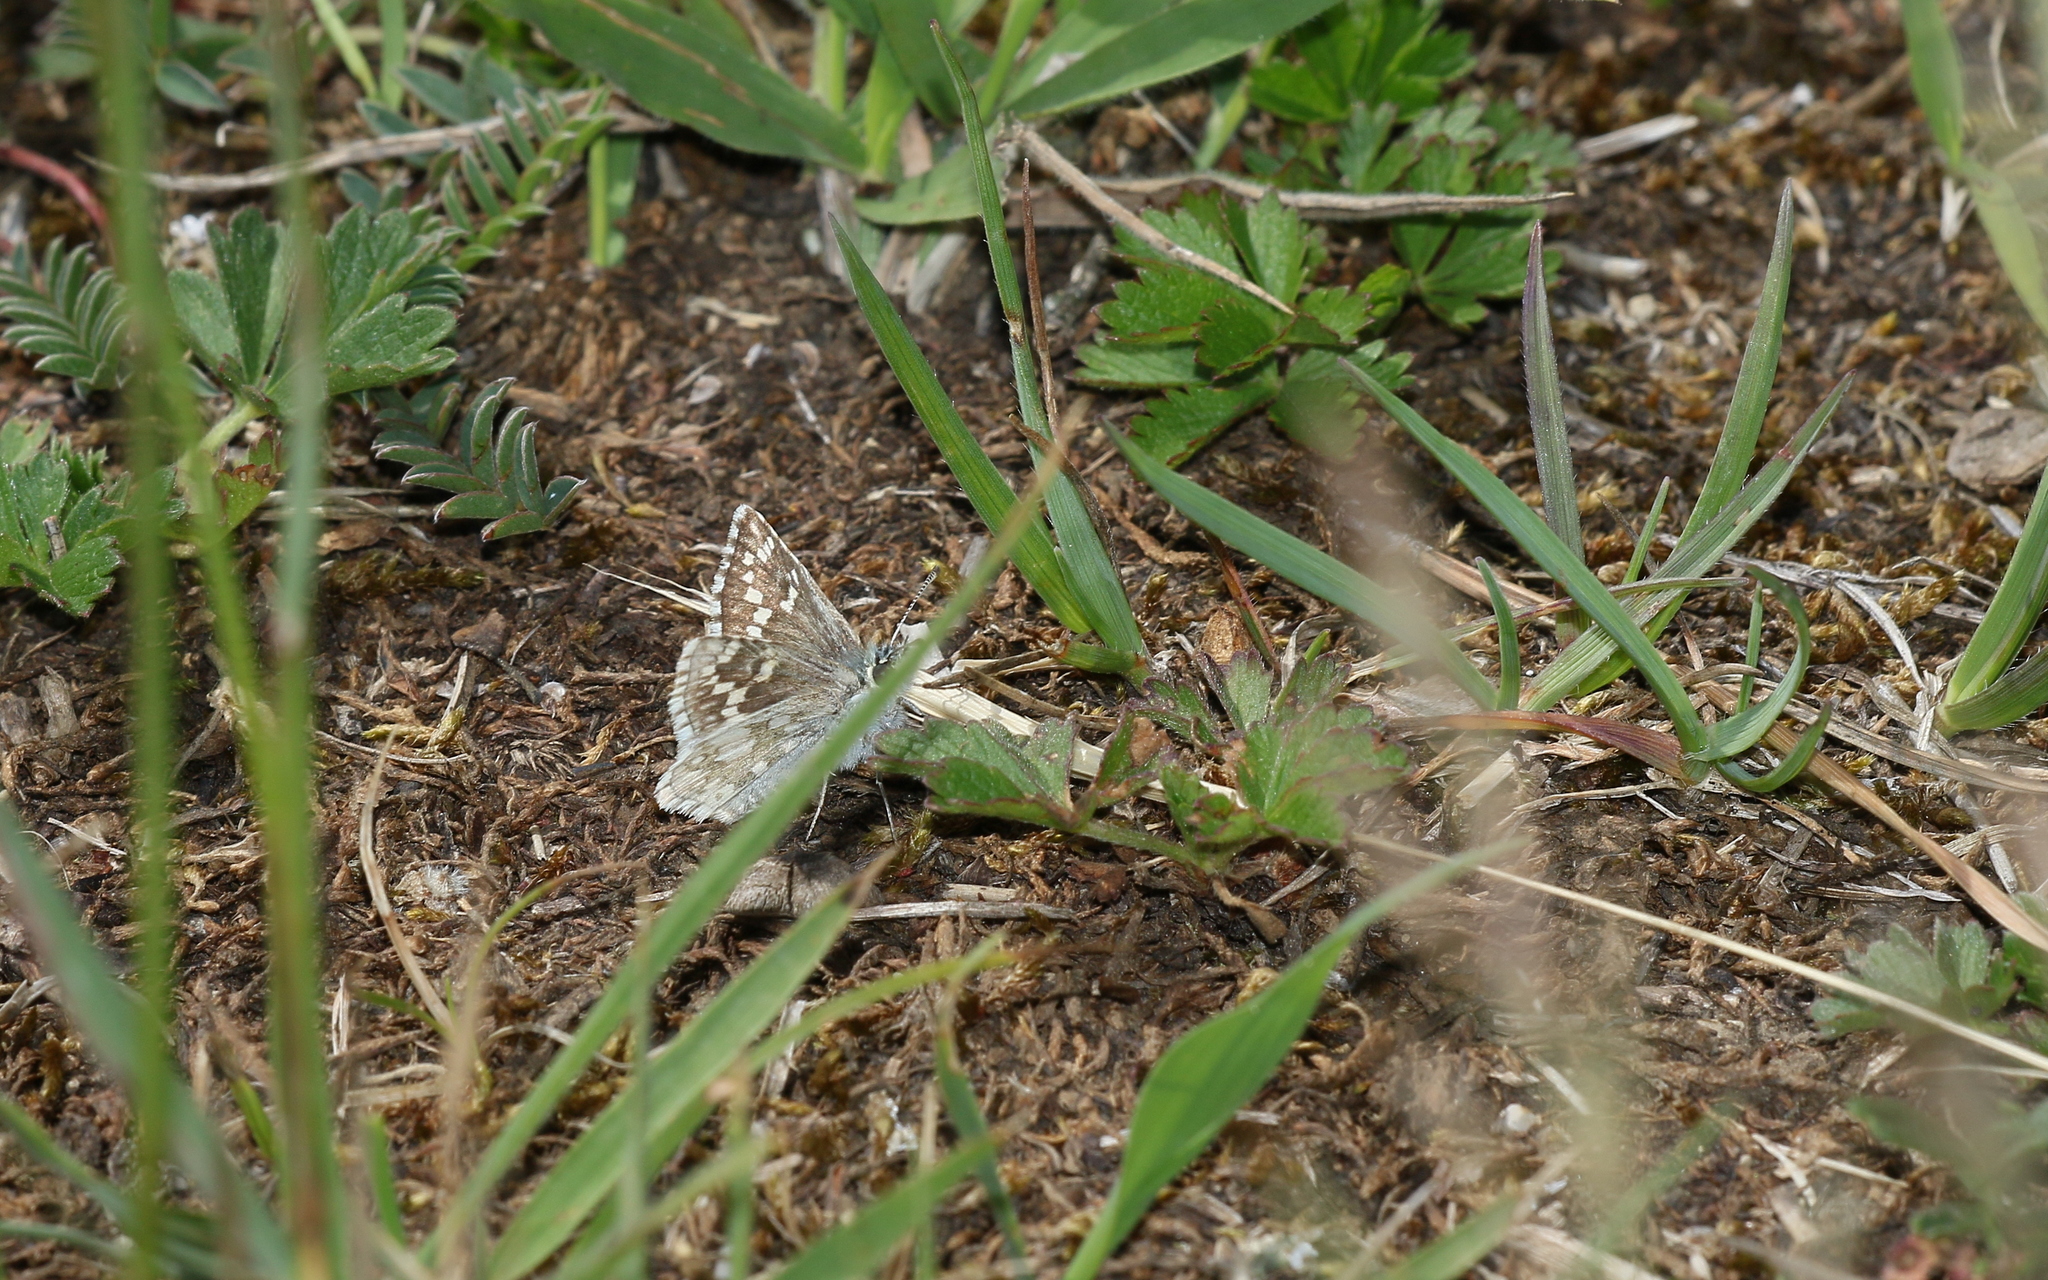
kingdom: Animalia
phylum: Arthropoda
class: Insecta
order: Lepidoptera
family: Hesperiidae
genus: Pyrgus
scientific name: Pyrgus fritillarius
